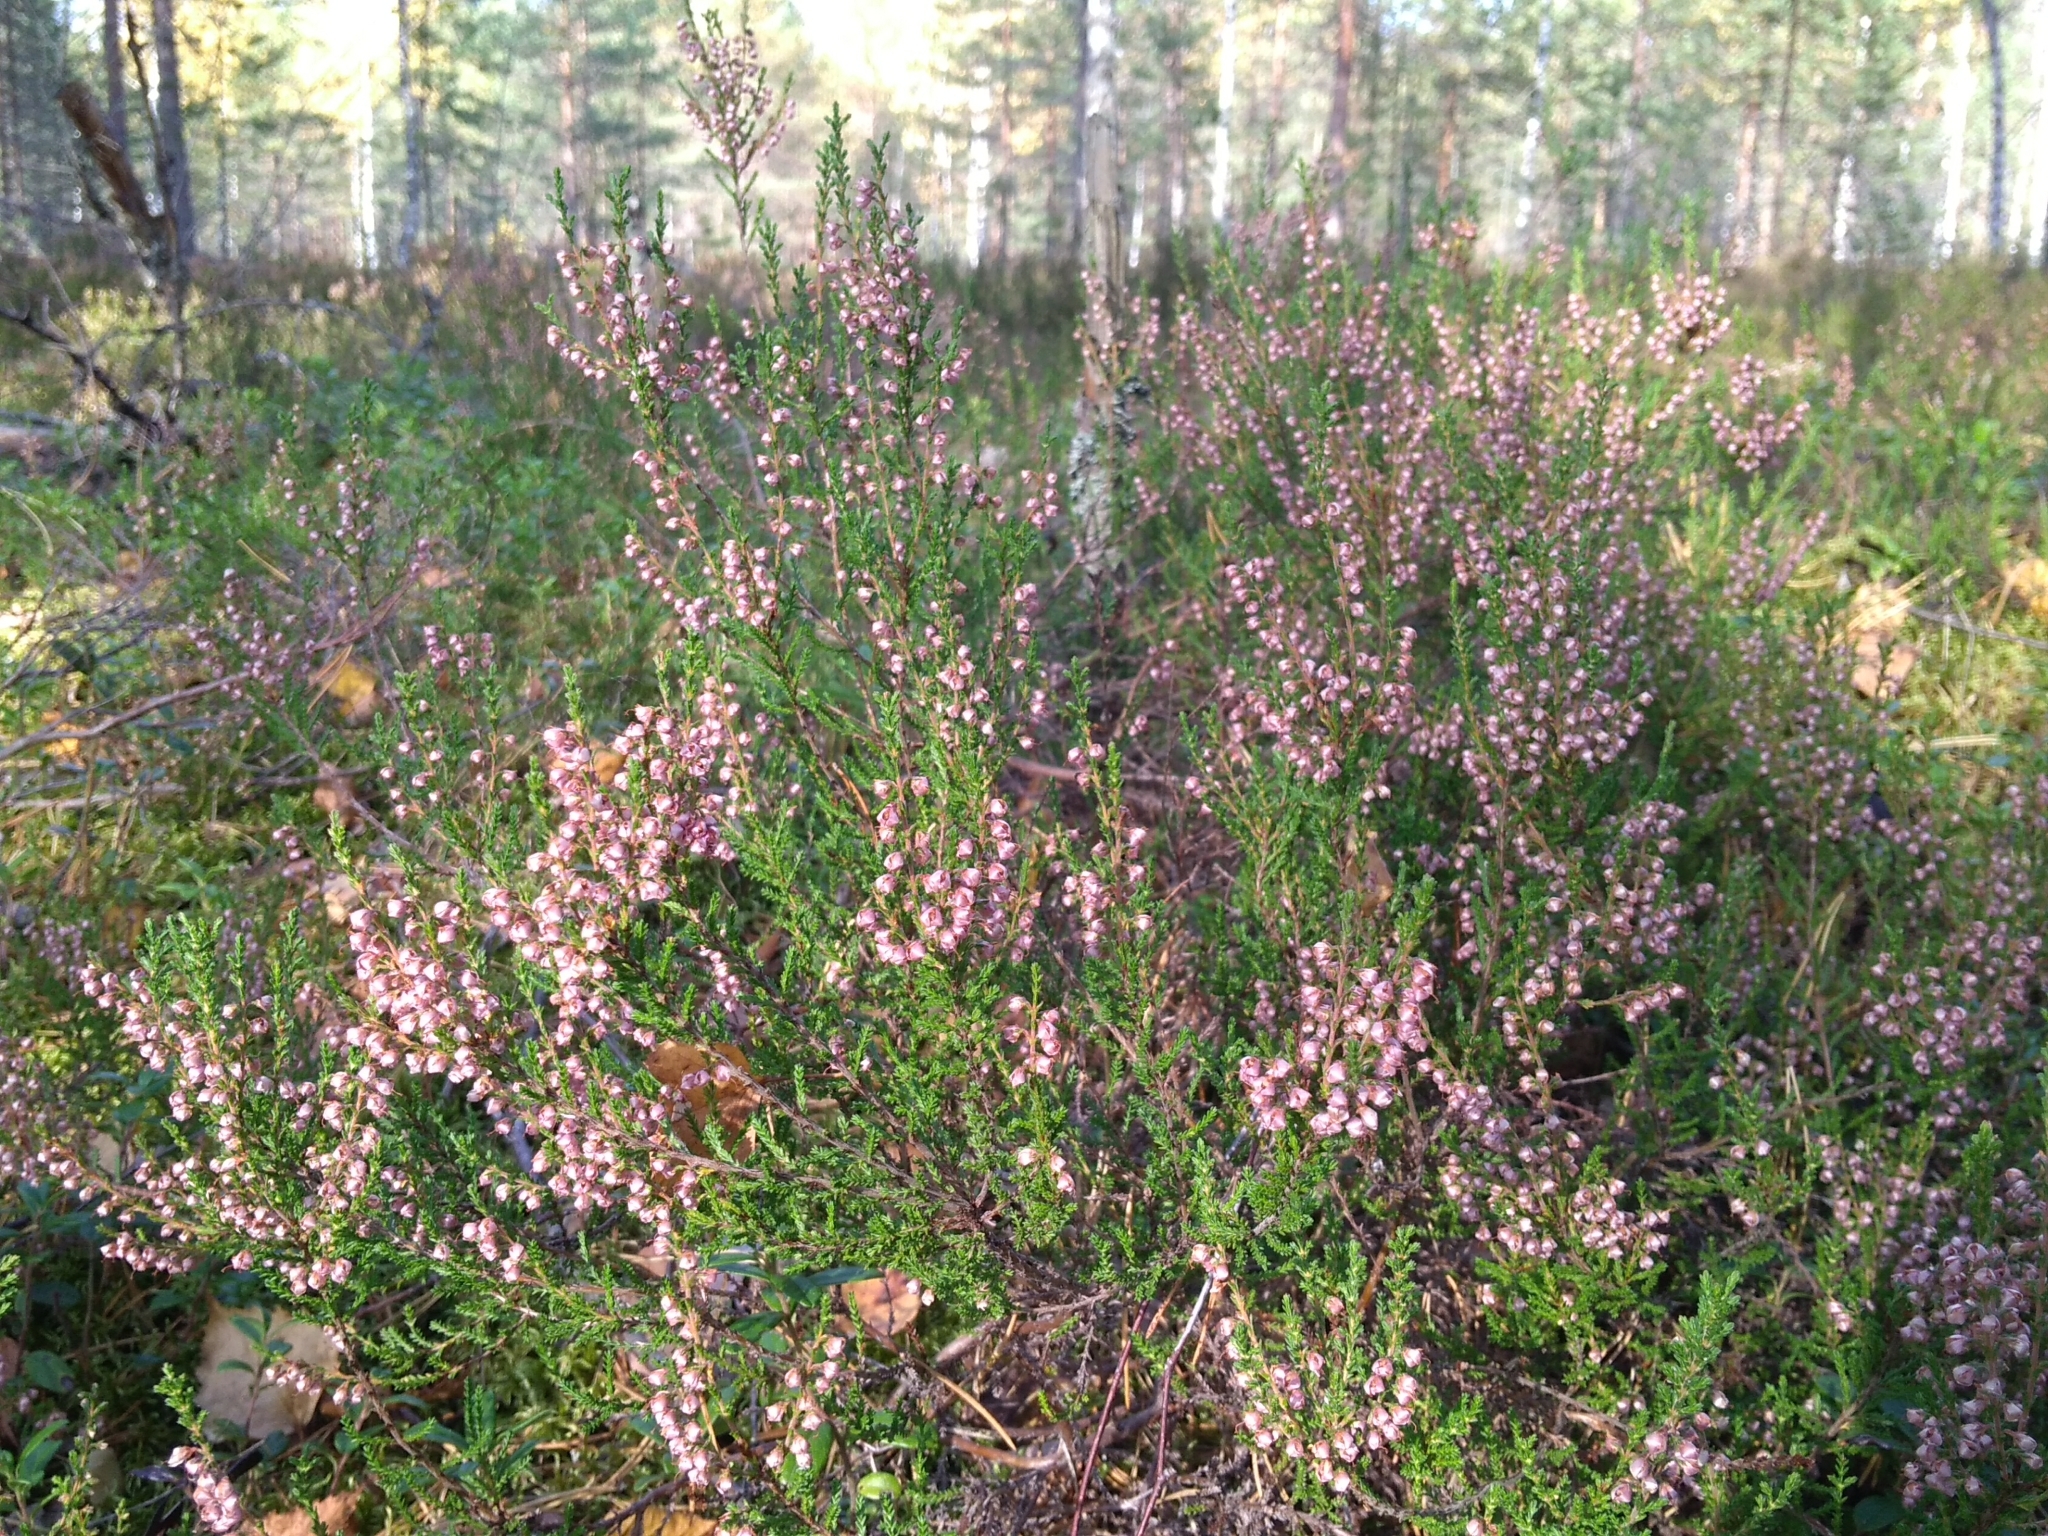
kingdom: Plantae
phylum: Tracheophyta
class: Magnoliopsida
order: Ericales
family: Ericaceae
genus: Calluna
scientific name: Calluna vulgaris
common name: Heather
